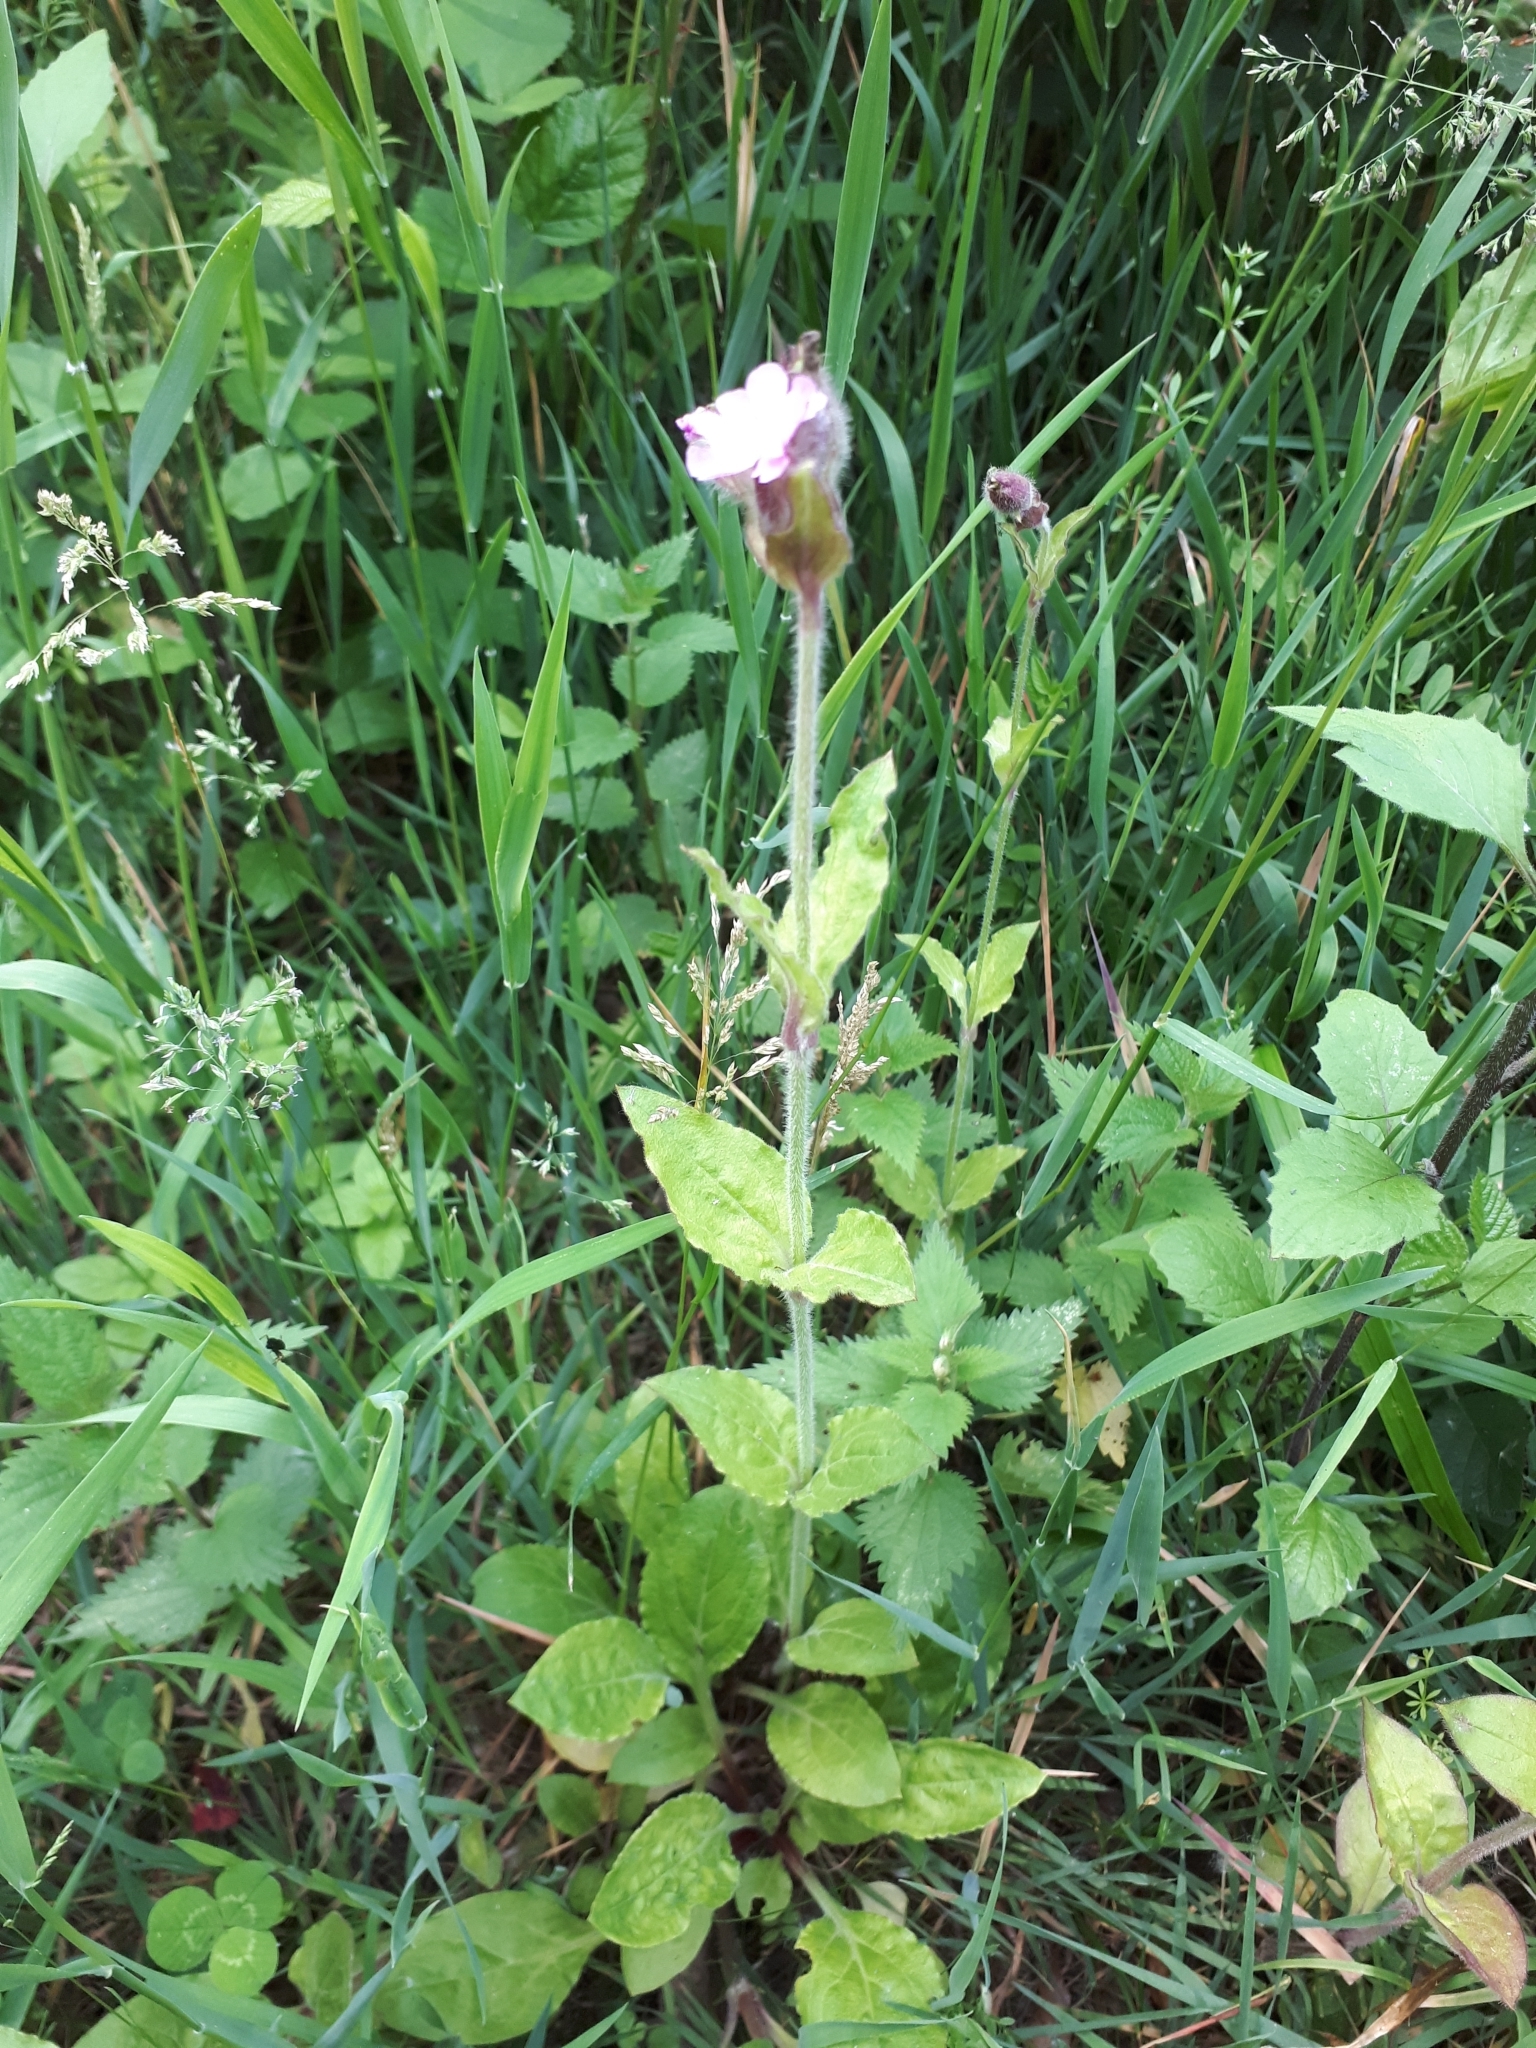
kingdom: Plantae
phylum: Tracheophyta
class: Magnoliopsida
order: Caryophyllales
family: Caryophyllaceae
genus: Silene
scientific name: Silene dioica
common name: Red campion
